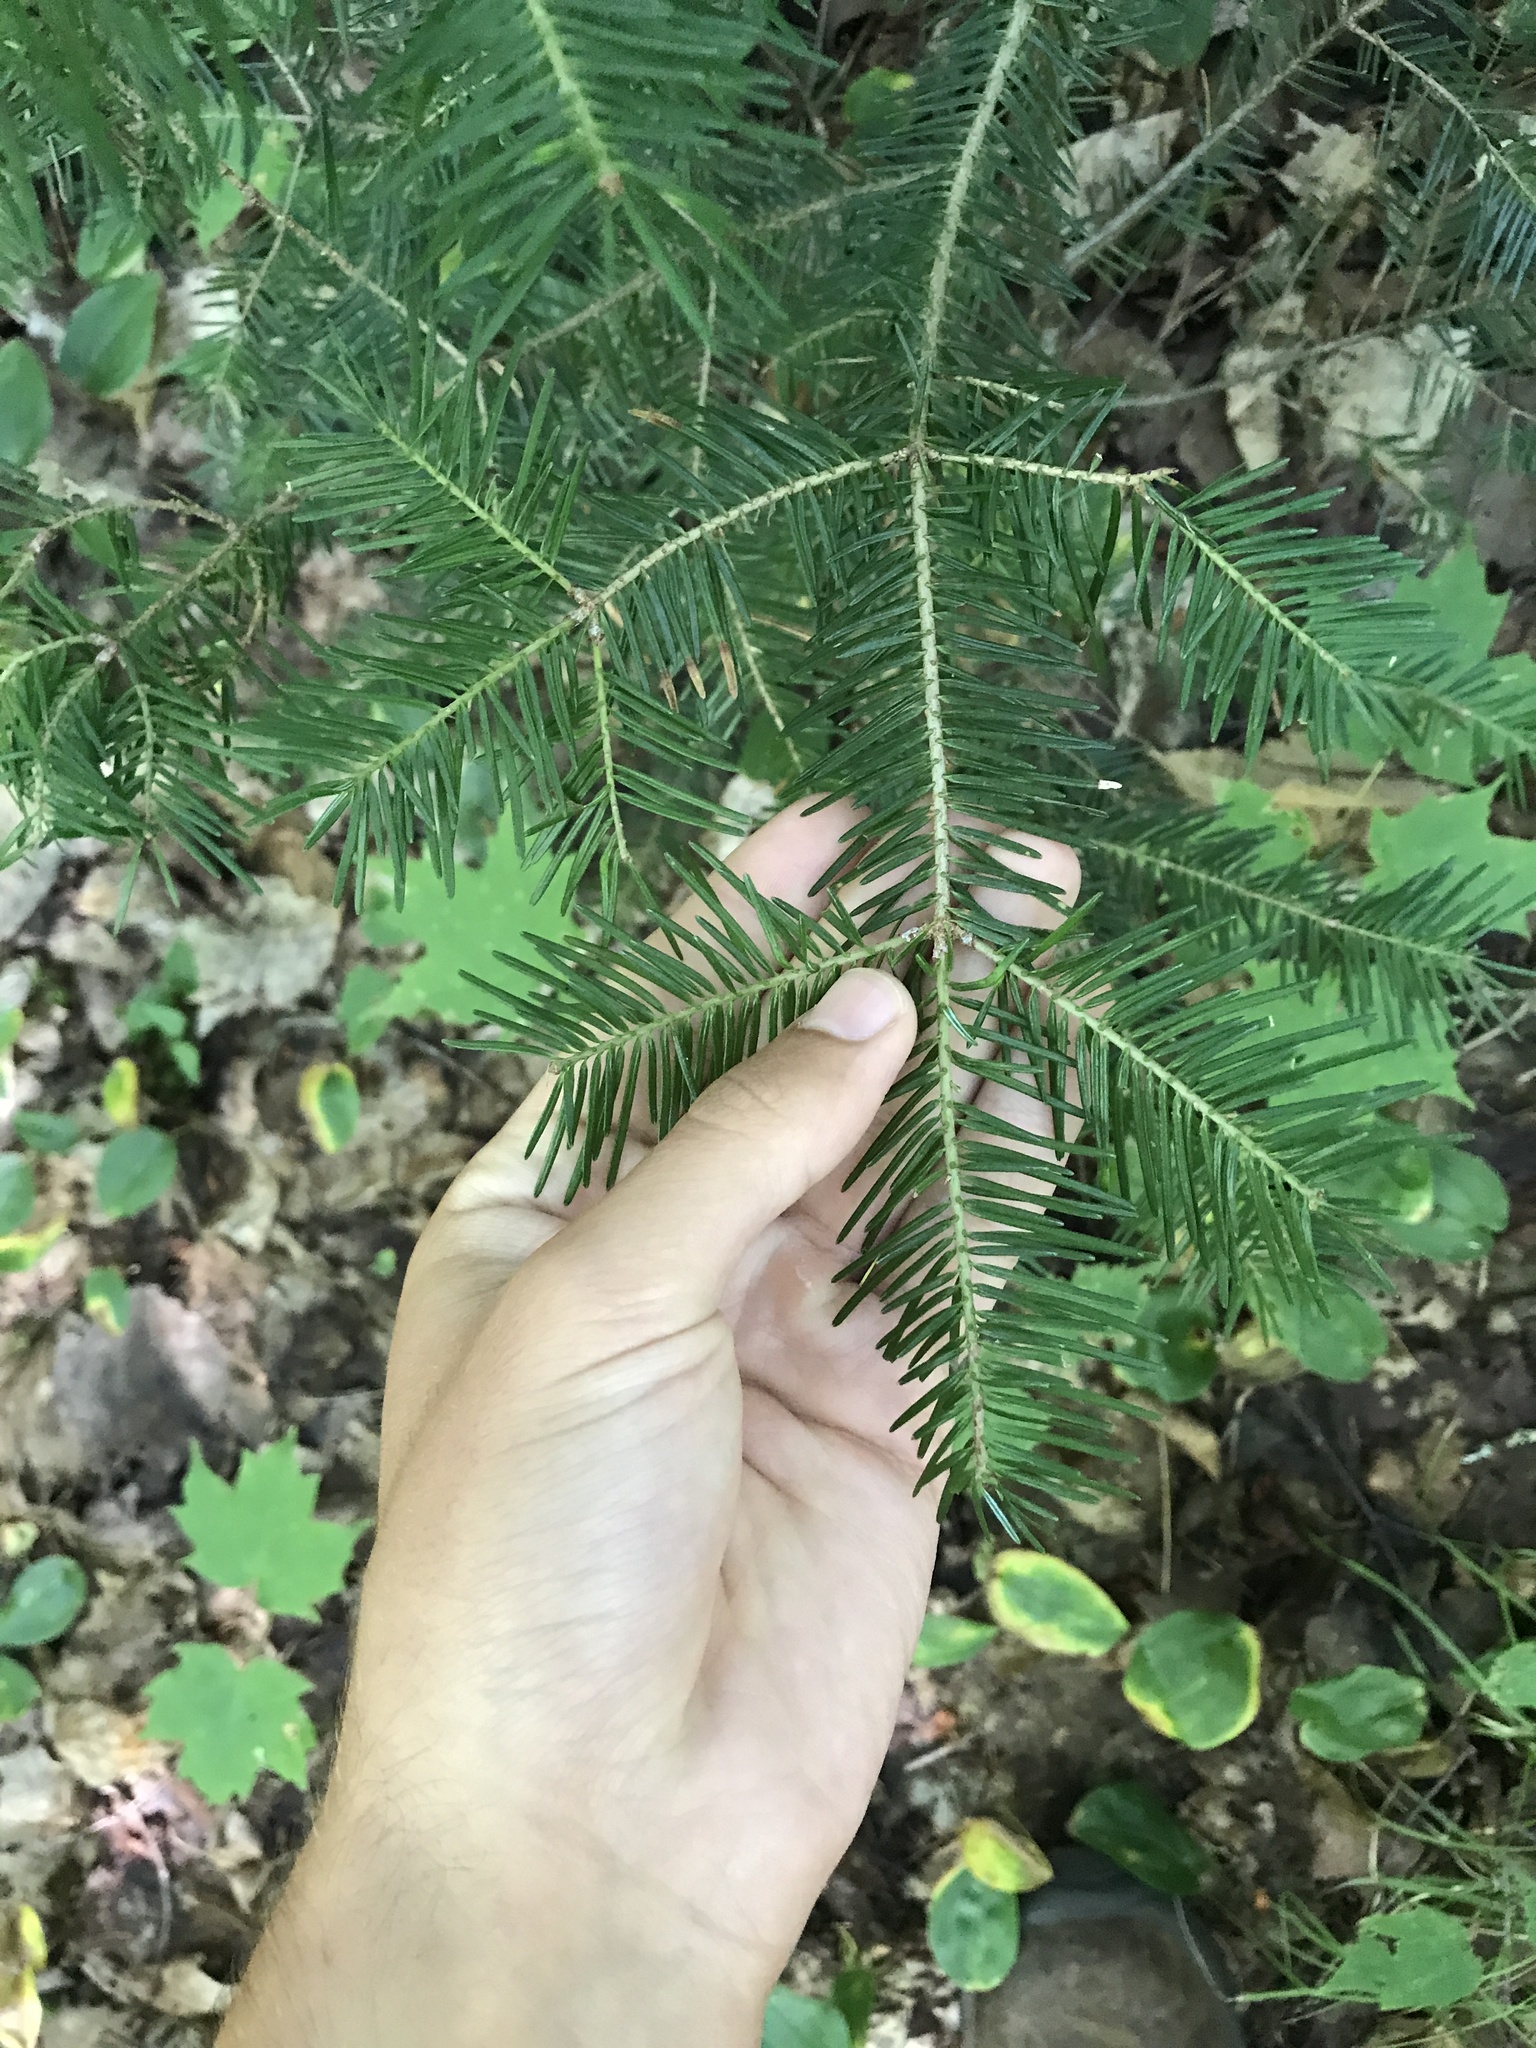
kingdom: Plantae
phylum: Tracheophyta
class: Pinopsida
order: Pinales
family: Pinaceae
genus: Abies
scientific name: Abies balsamea
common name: Balsam fir
